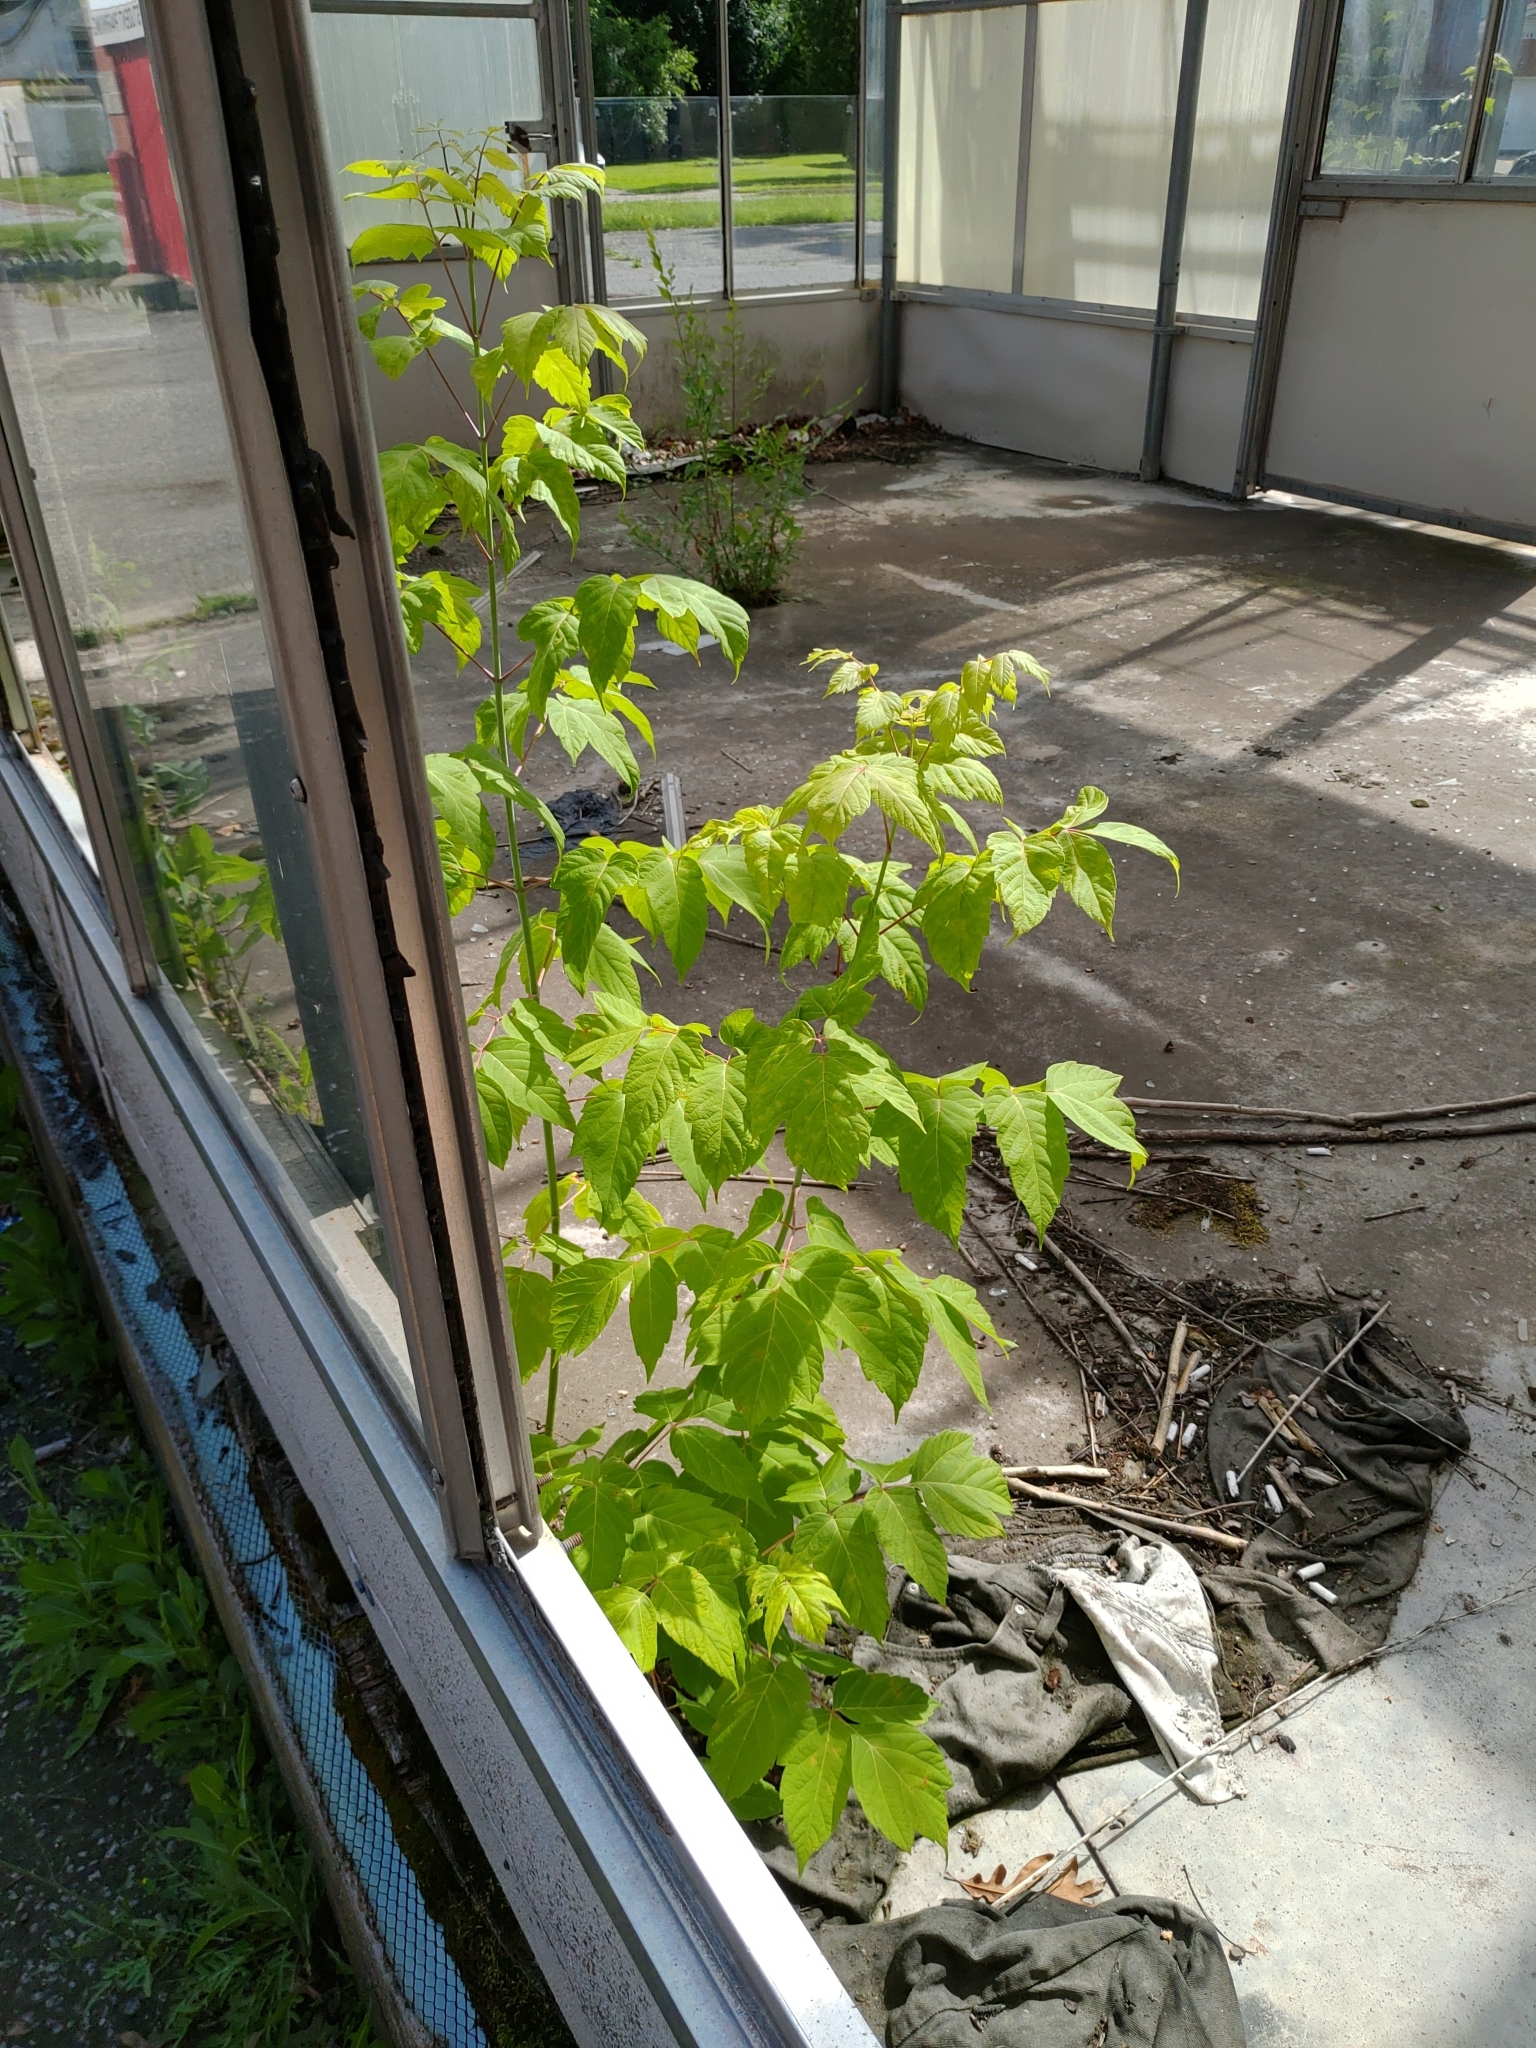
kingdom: Plantae
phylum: Tracheophyta
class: Magnoliopsida
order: Sapindales
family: Sapindaceae
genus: Acer
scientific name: Acer negundo
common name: Ashleaf maple
